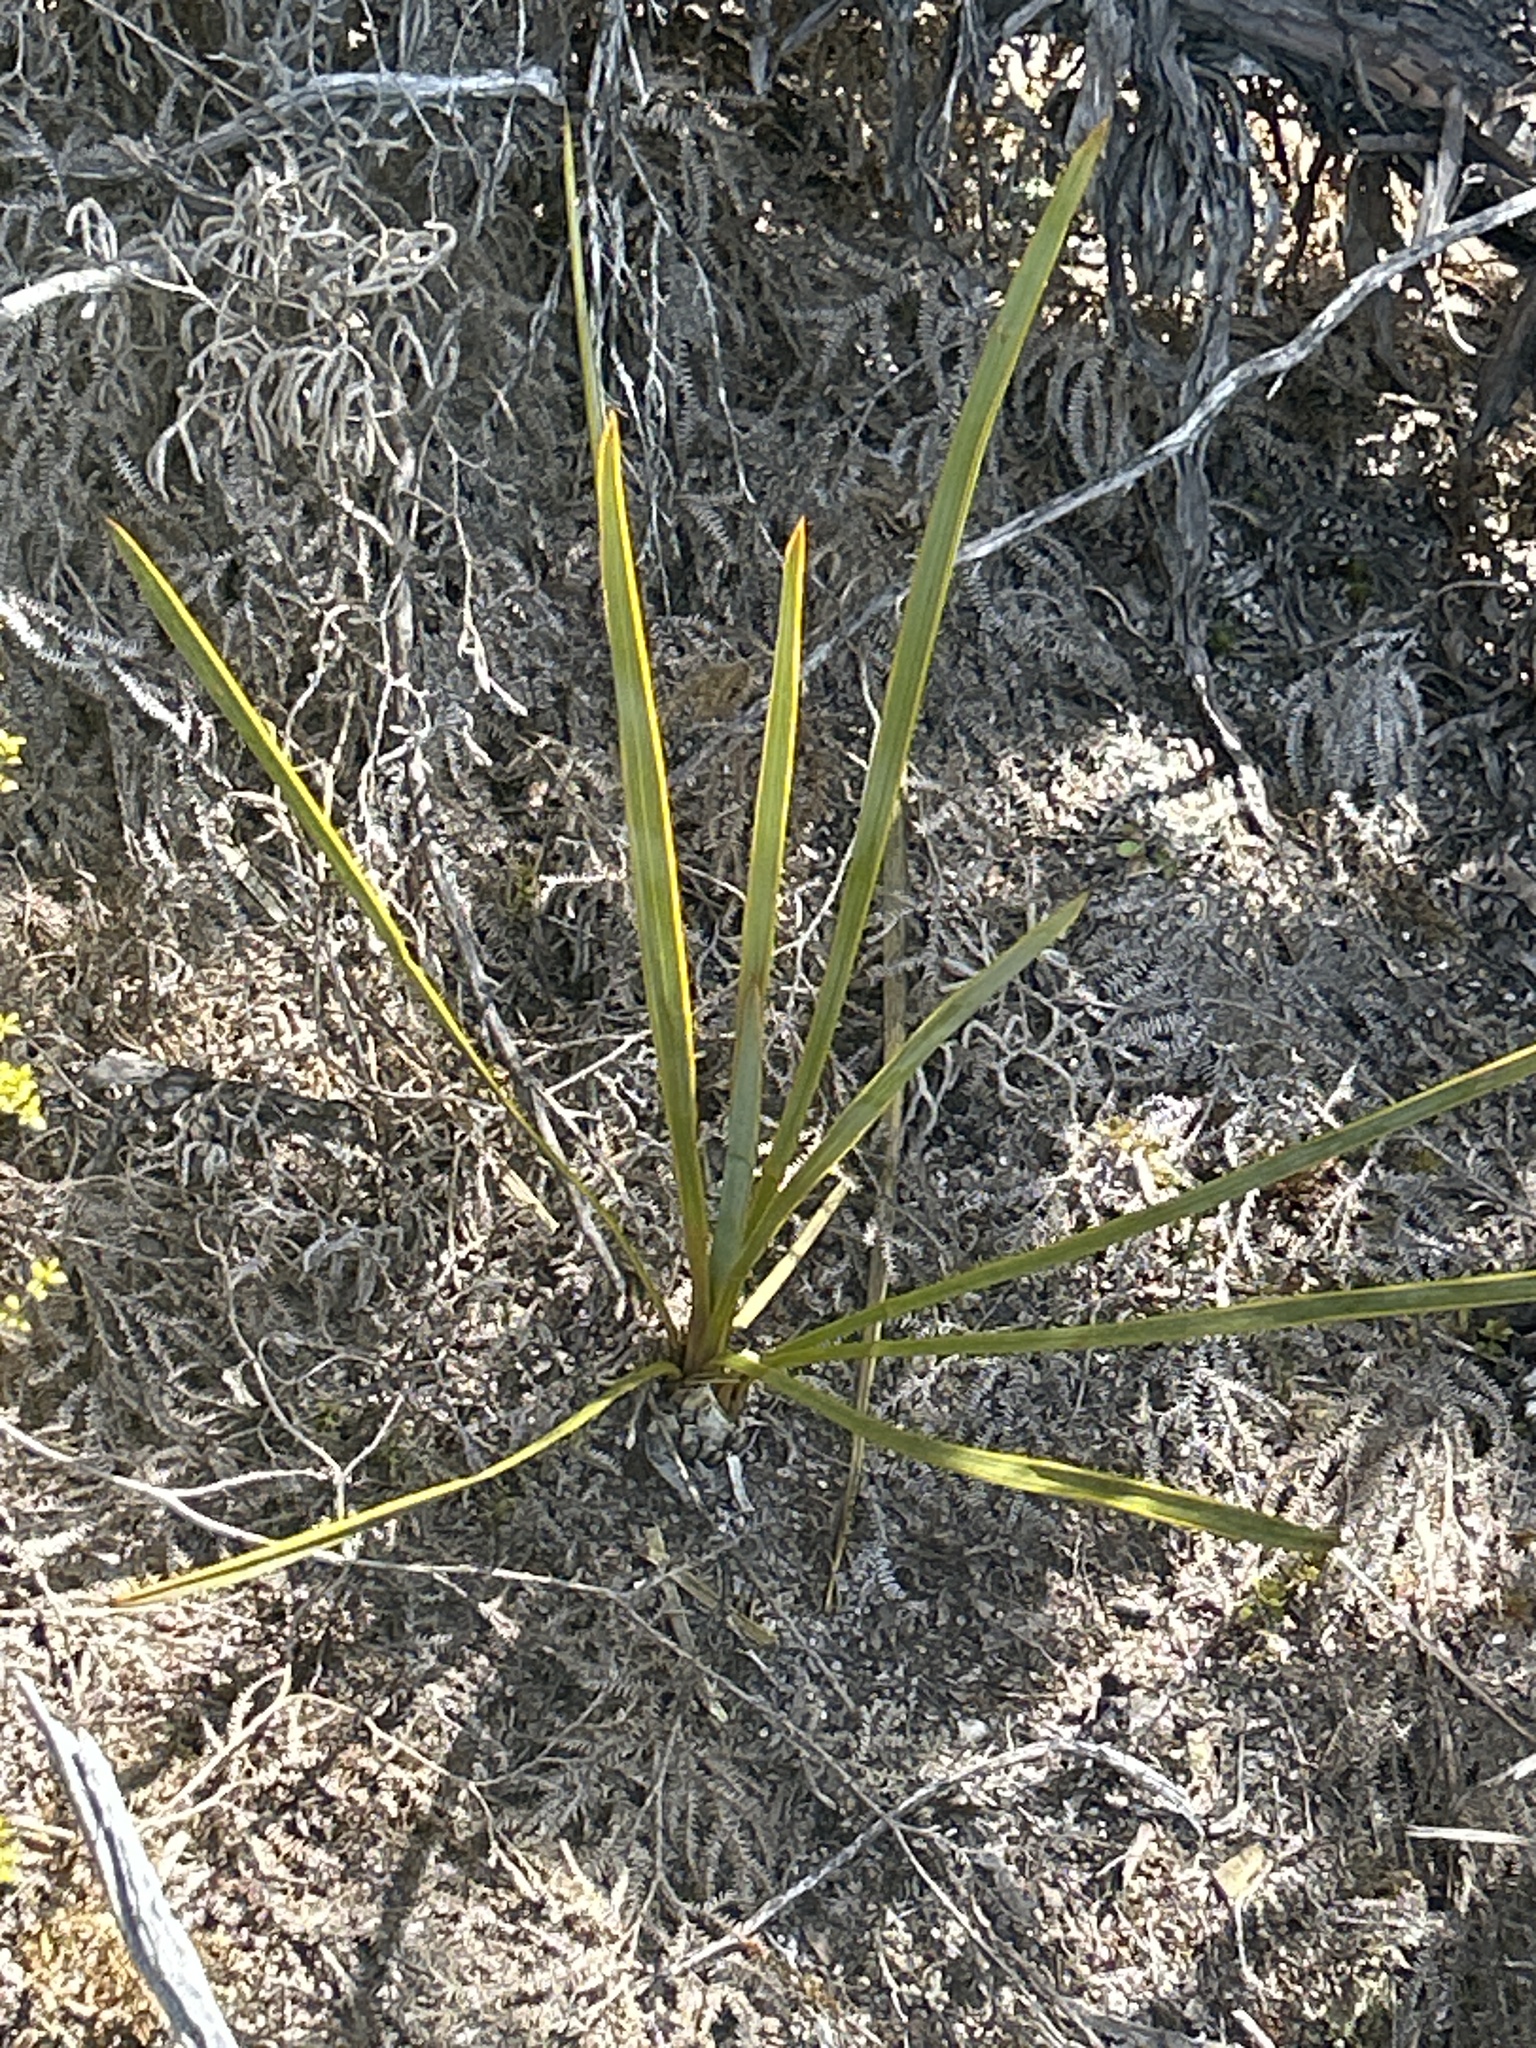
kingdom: Plantae
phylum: Tracheophyta
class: Magnoliopsida
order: Apiales
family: Apiaceae
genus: Aciphylla
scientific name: Aciphylla aurea
